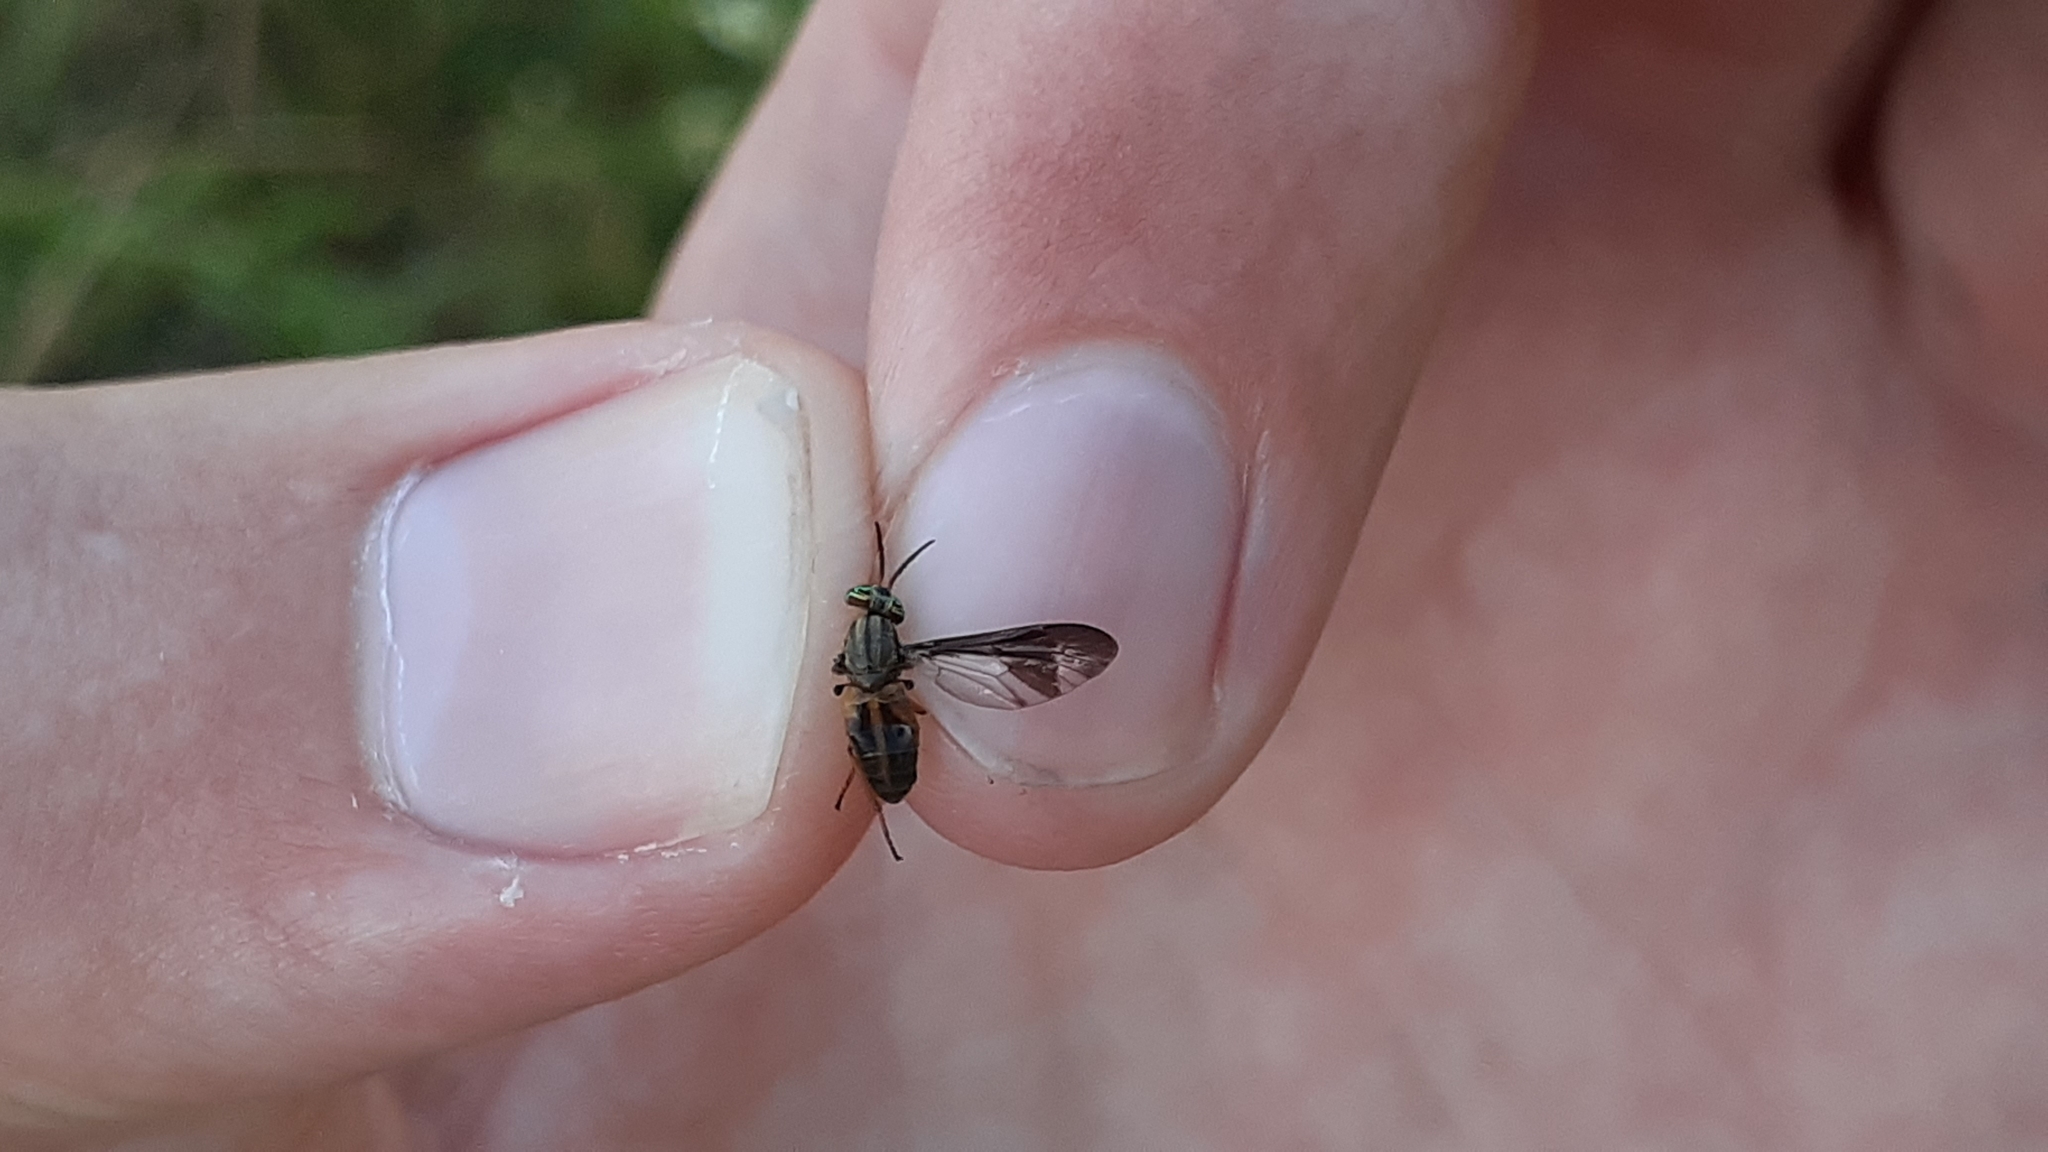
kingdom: Animalia
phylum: Arthropoda
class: Insecta
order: Diptera
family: Tabanidae
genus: Chrysops
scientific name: Chrysops macquarti
